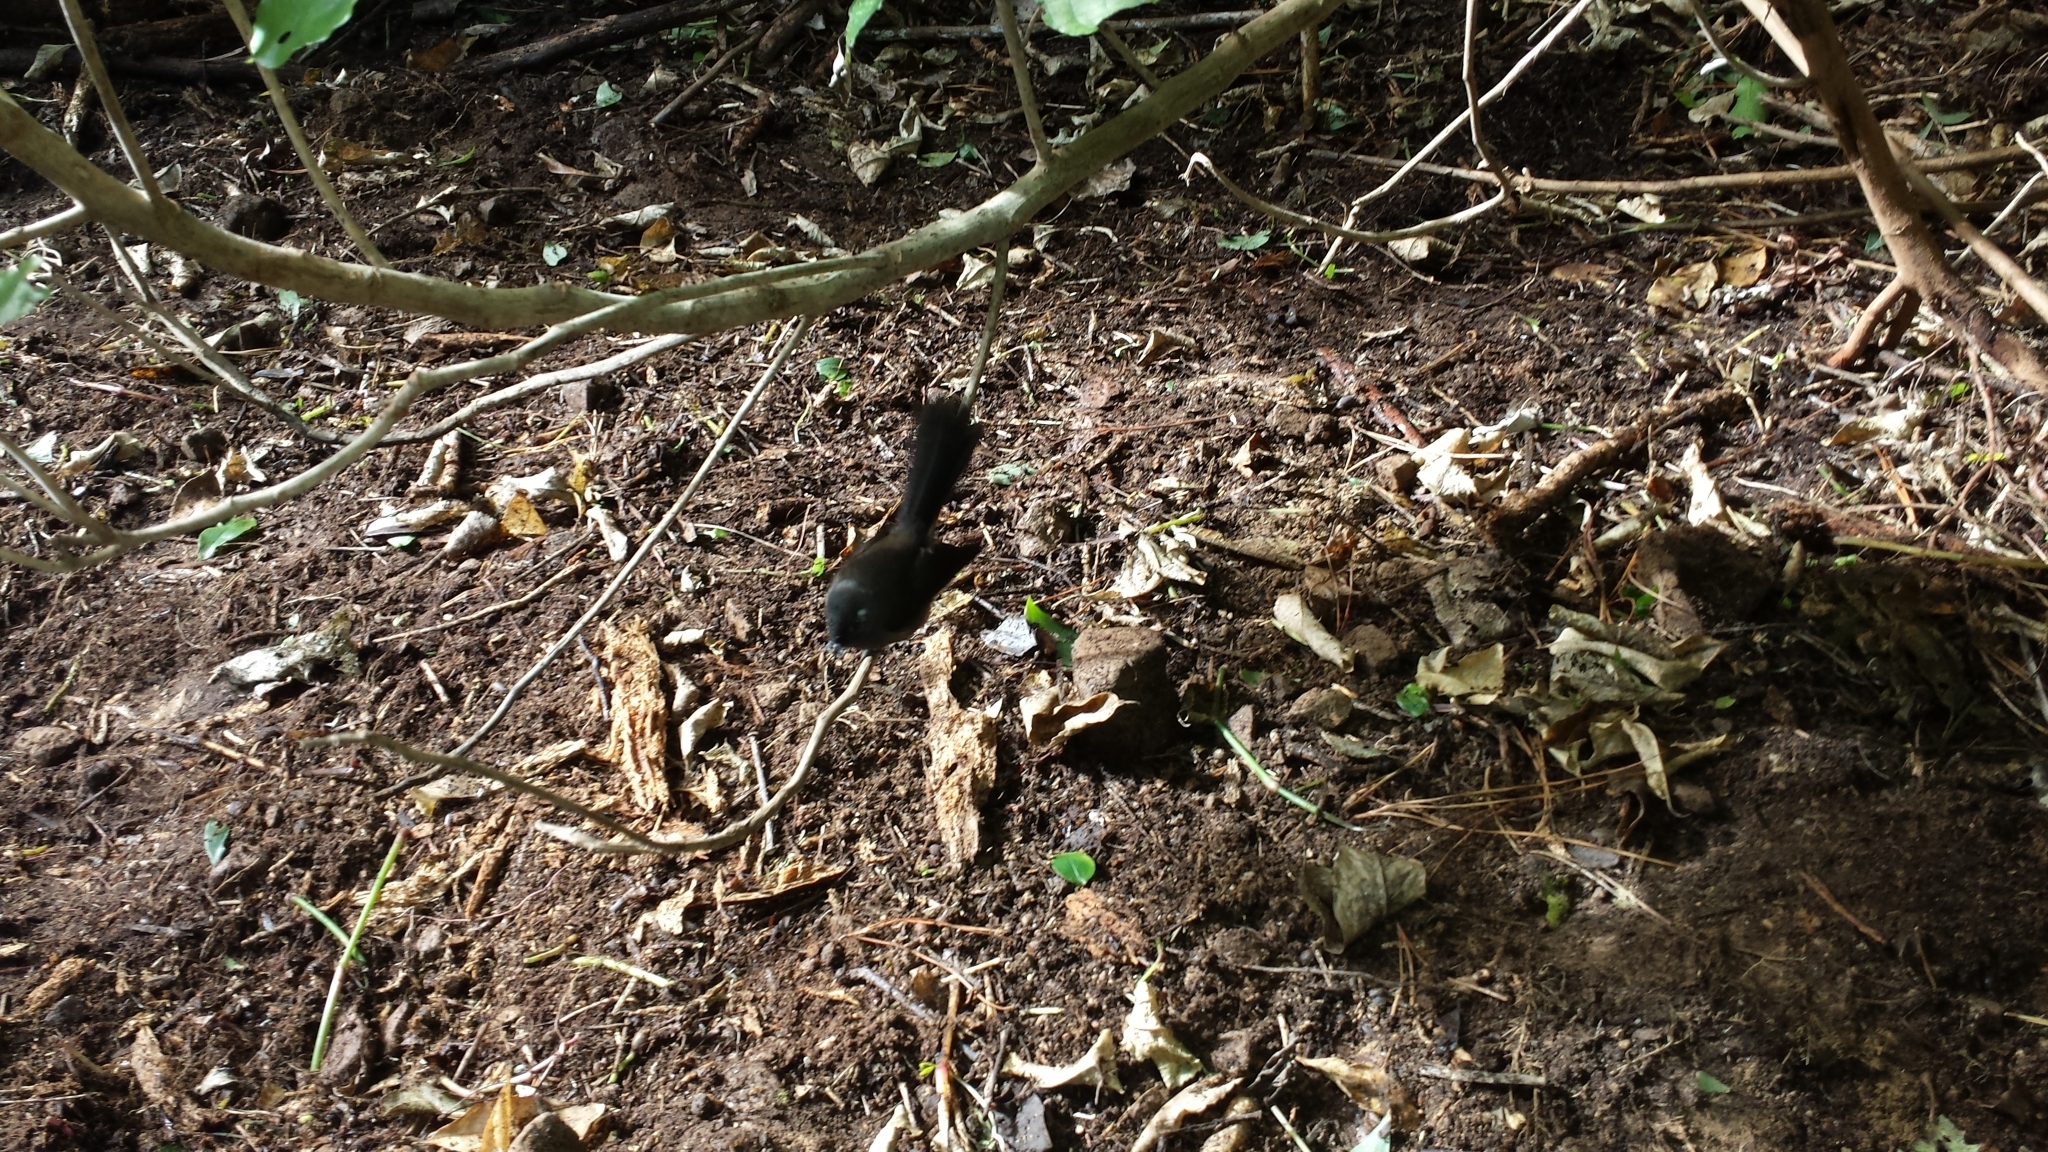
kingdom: Animalia
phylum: Chordata
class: Aves
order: Passeriformes
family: Rhipiduridae
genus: Rhipidura
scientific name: Rhipidura fuliginosa
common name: New zealand fantail
